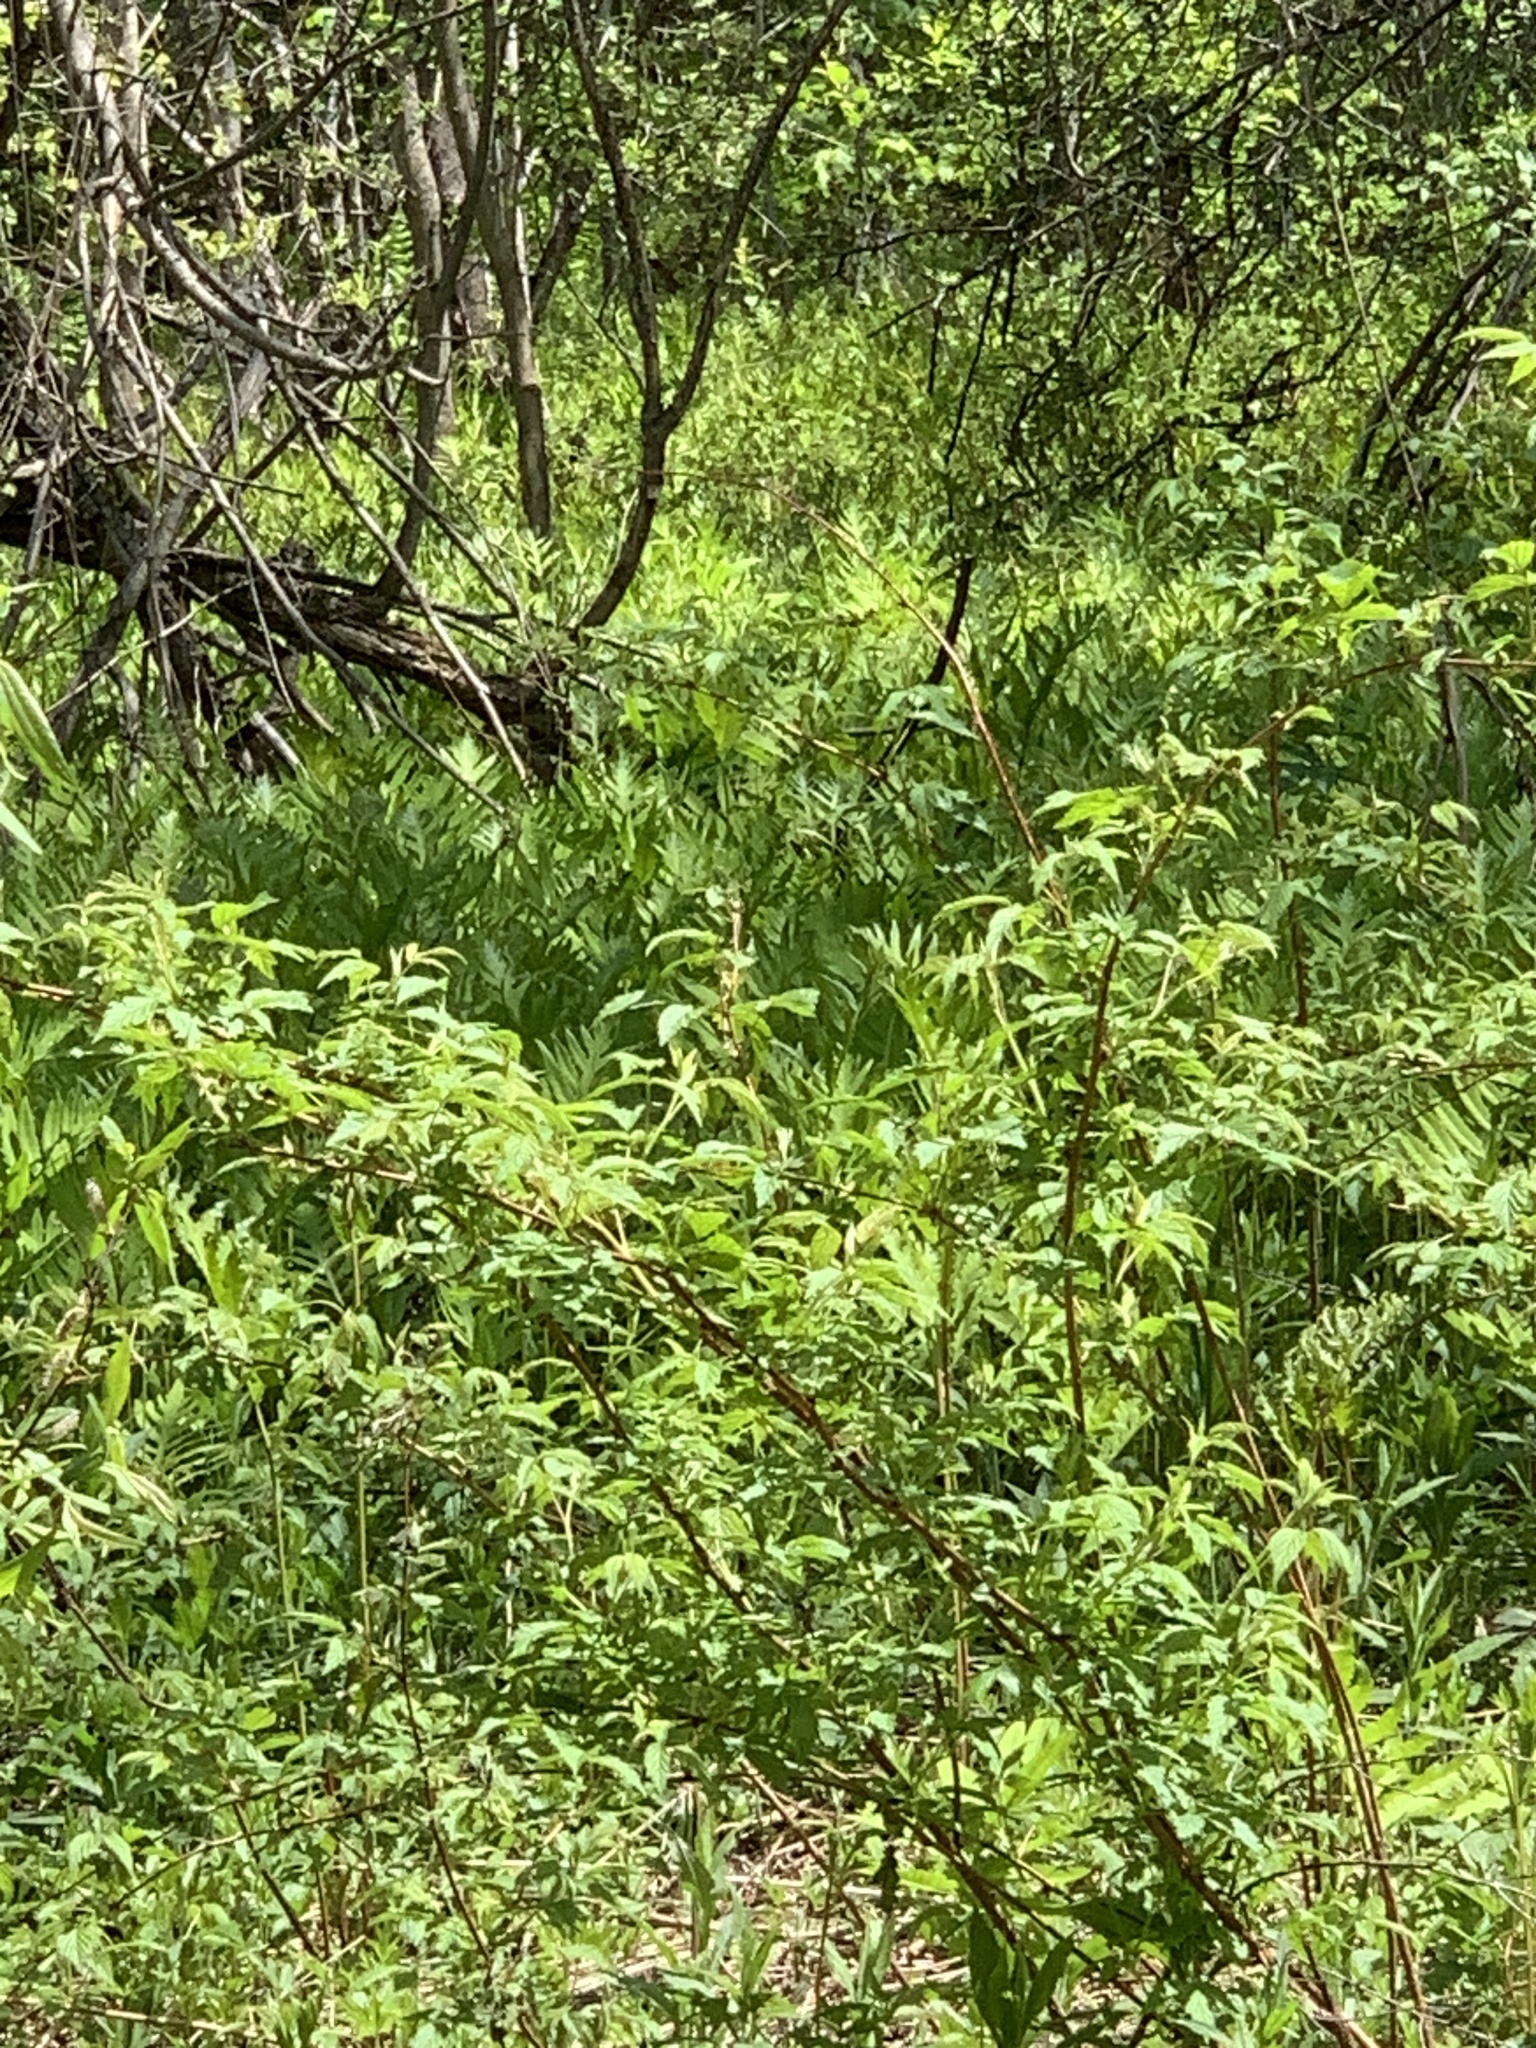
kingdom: Plantae
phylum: Tracheophyta
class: Polypodiopsida
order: Polypodiales
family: Onocleaceae
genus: Onoclea
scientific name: Onoclea sensibilis
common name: Sensitive fern
